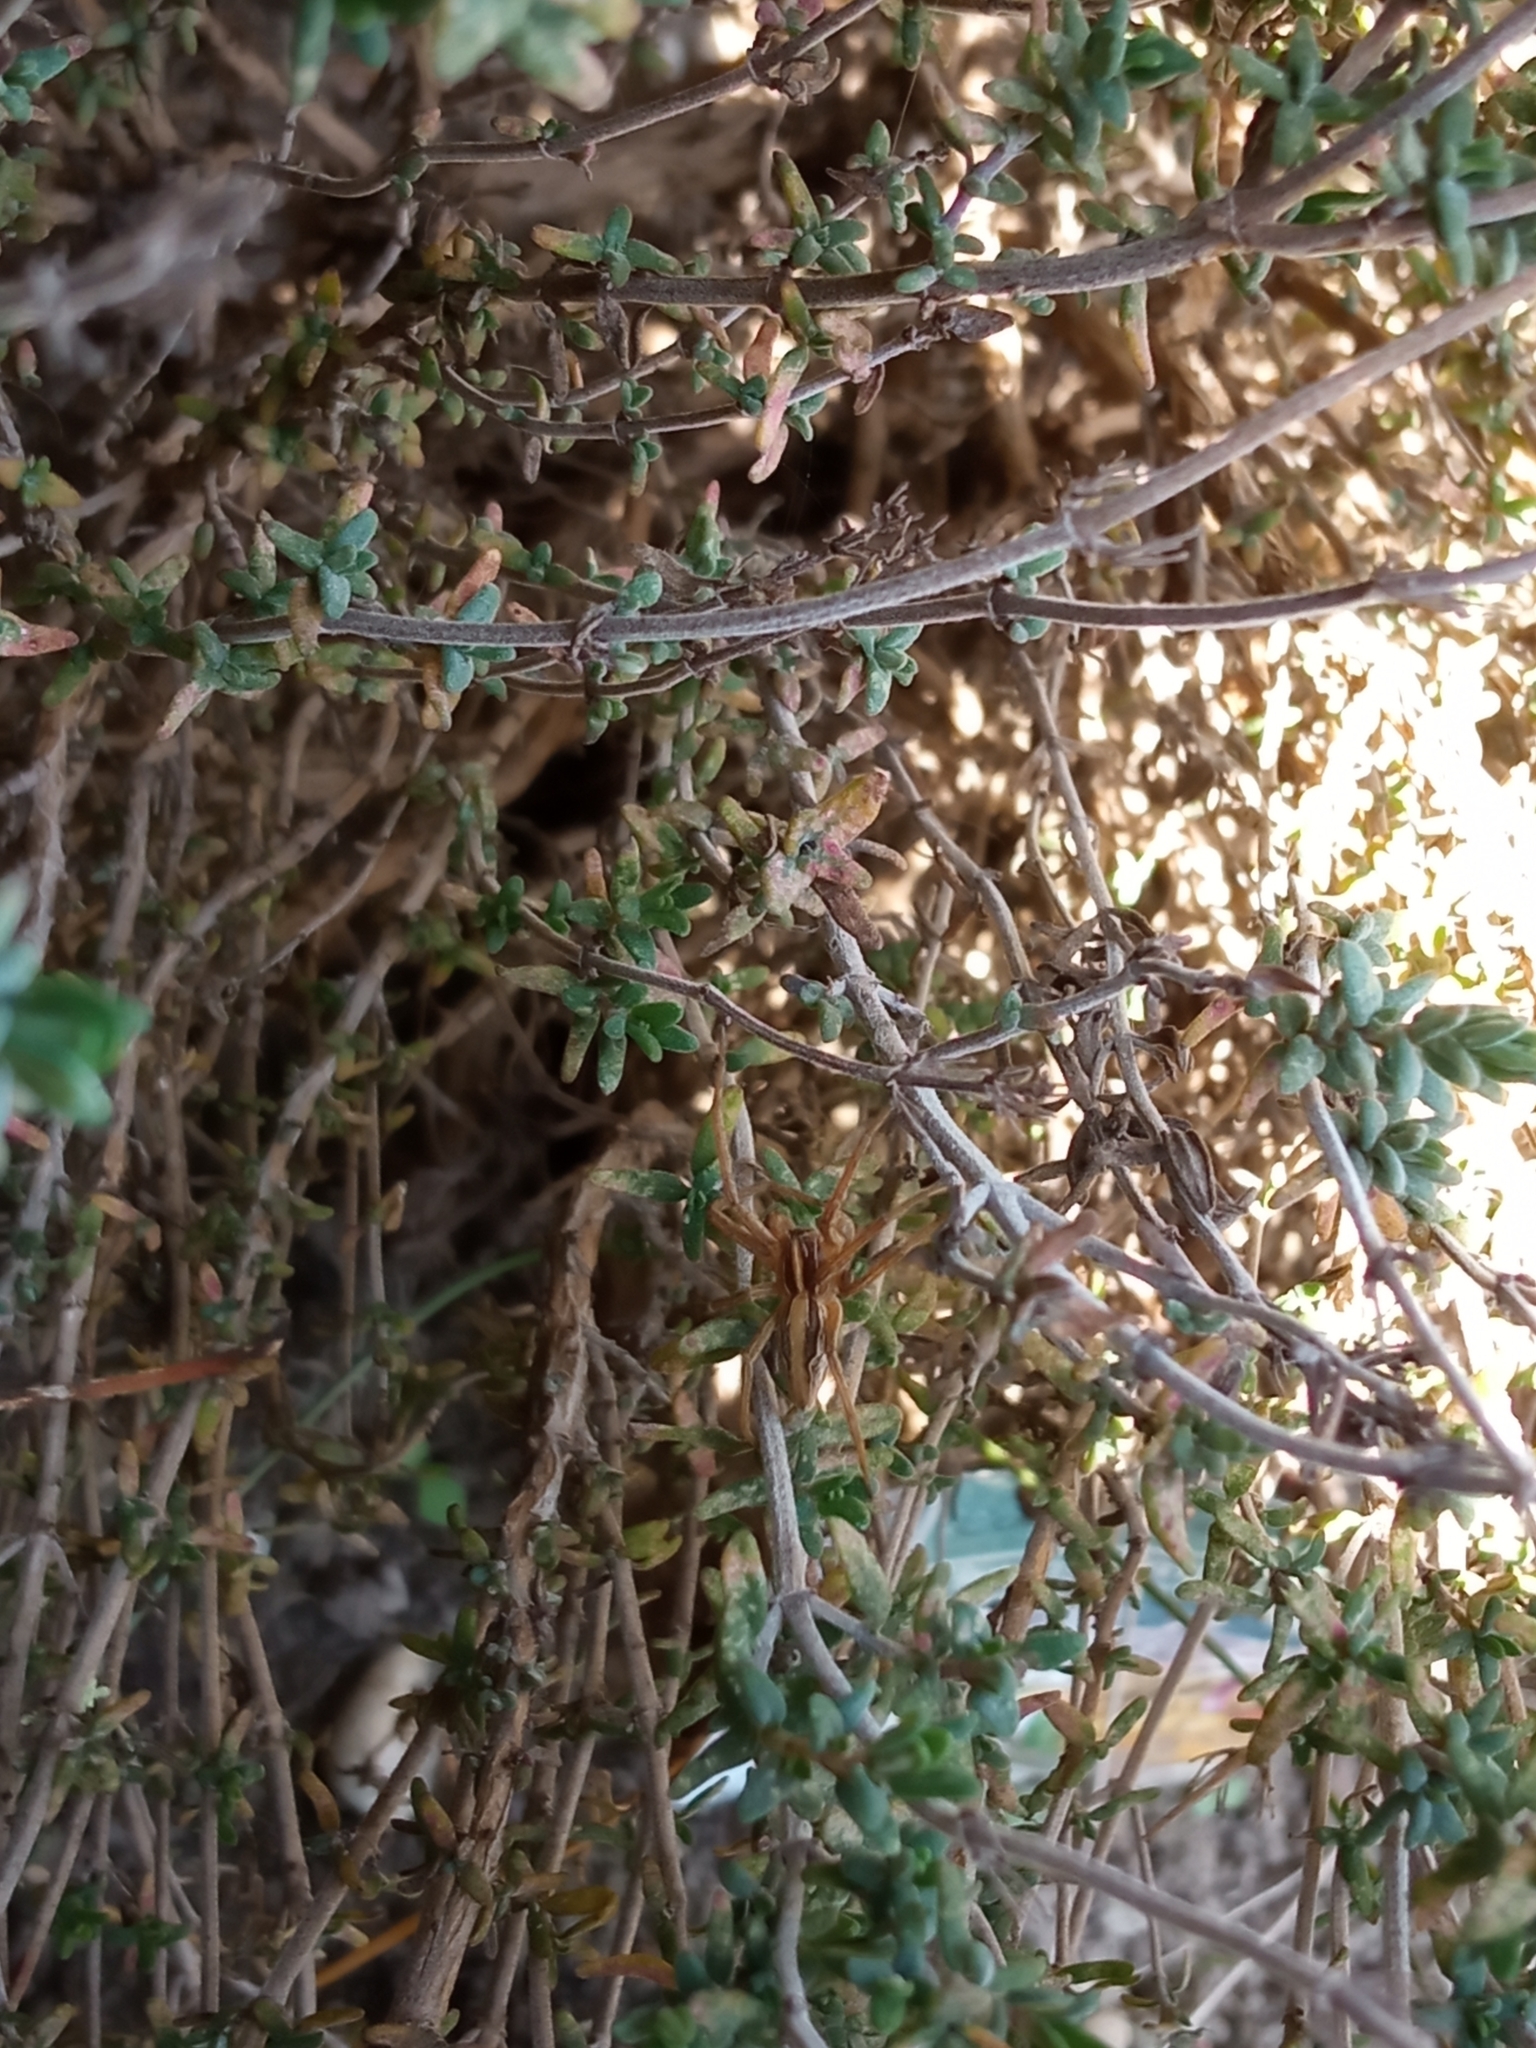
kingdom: Animalia
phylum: Arthropoda
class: Arachnida
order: Araneae
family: Pisauridae
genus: Pisaura
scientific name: Pisaura mirabilis
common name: Tent spider
